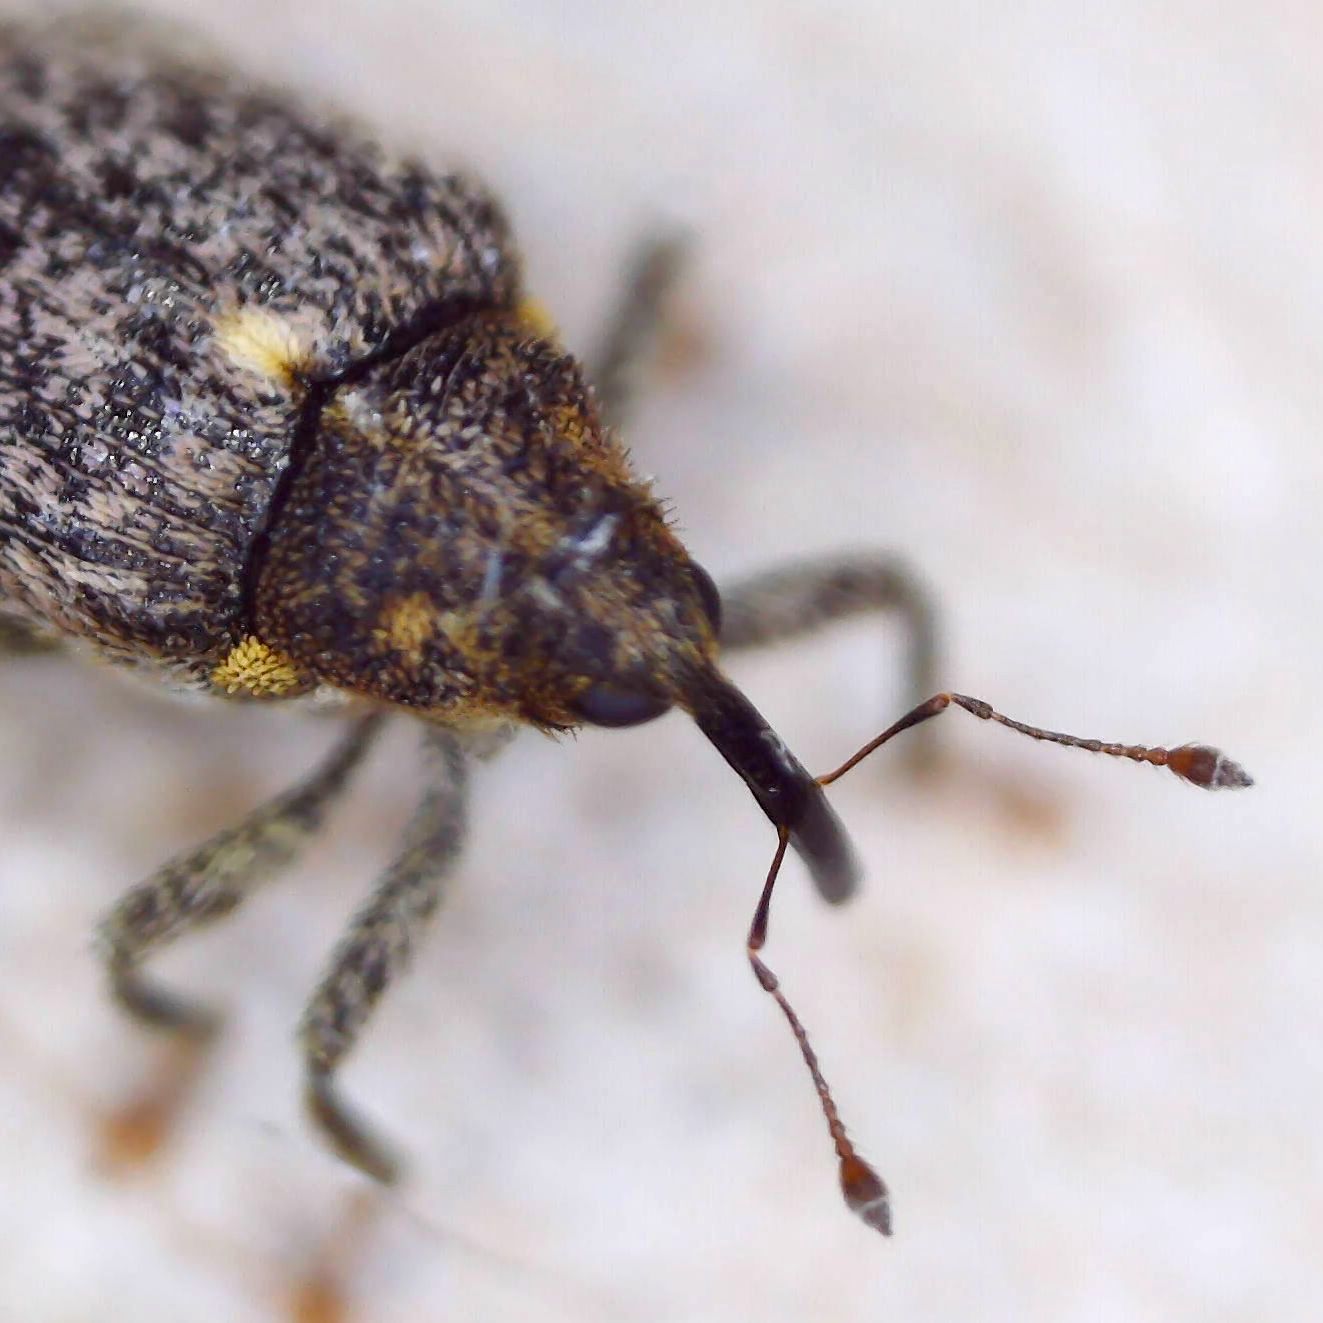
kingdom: Animalia
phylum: Arthropoda
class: Insecta
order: Coleoptera
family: Curculionidae
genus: Ceutorhynchus
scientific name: Ceutorhynchus pallidactylus
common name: Cabbage stem weavil
